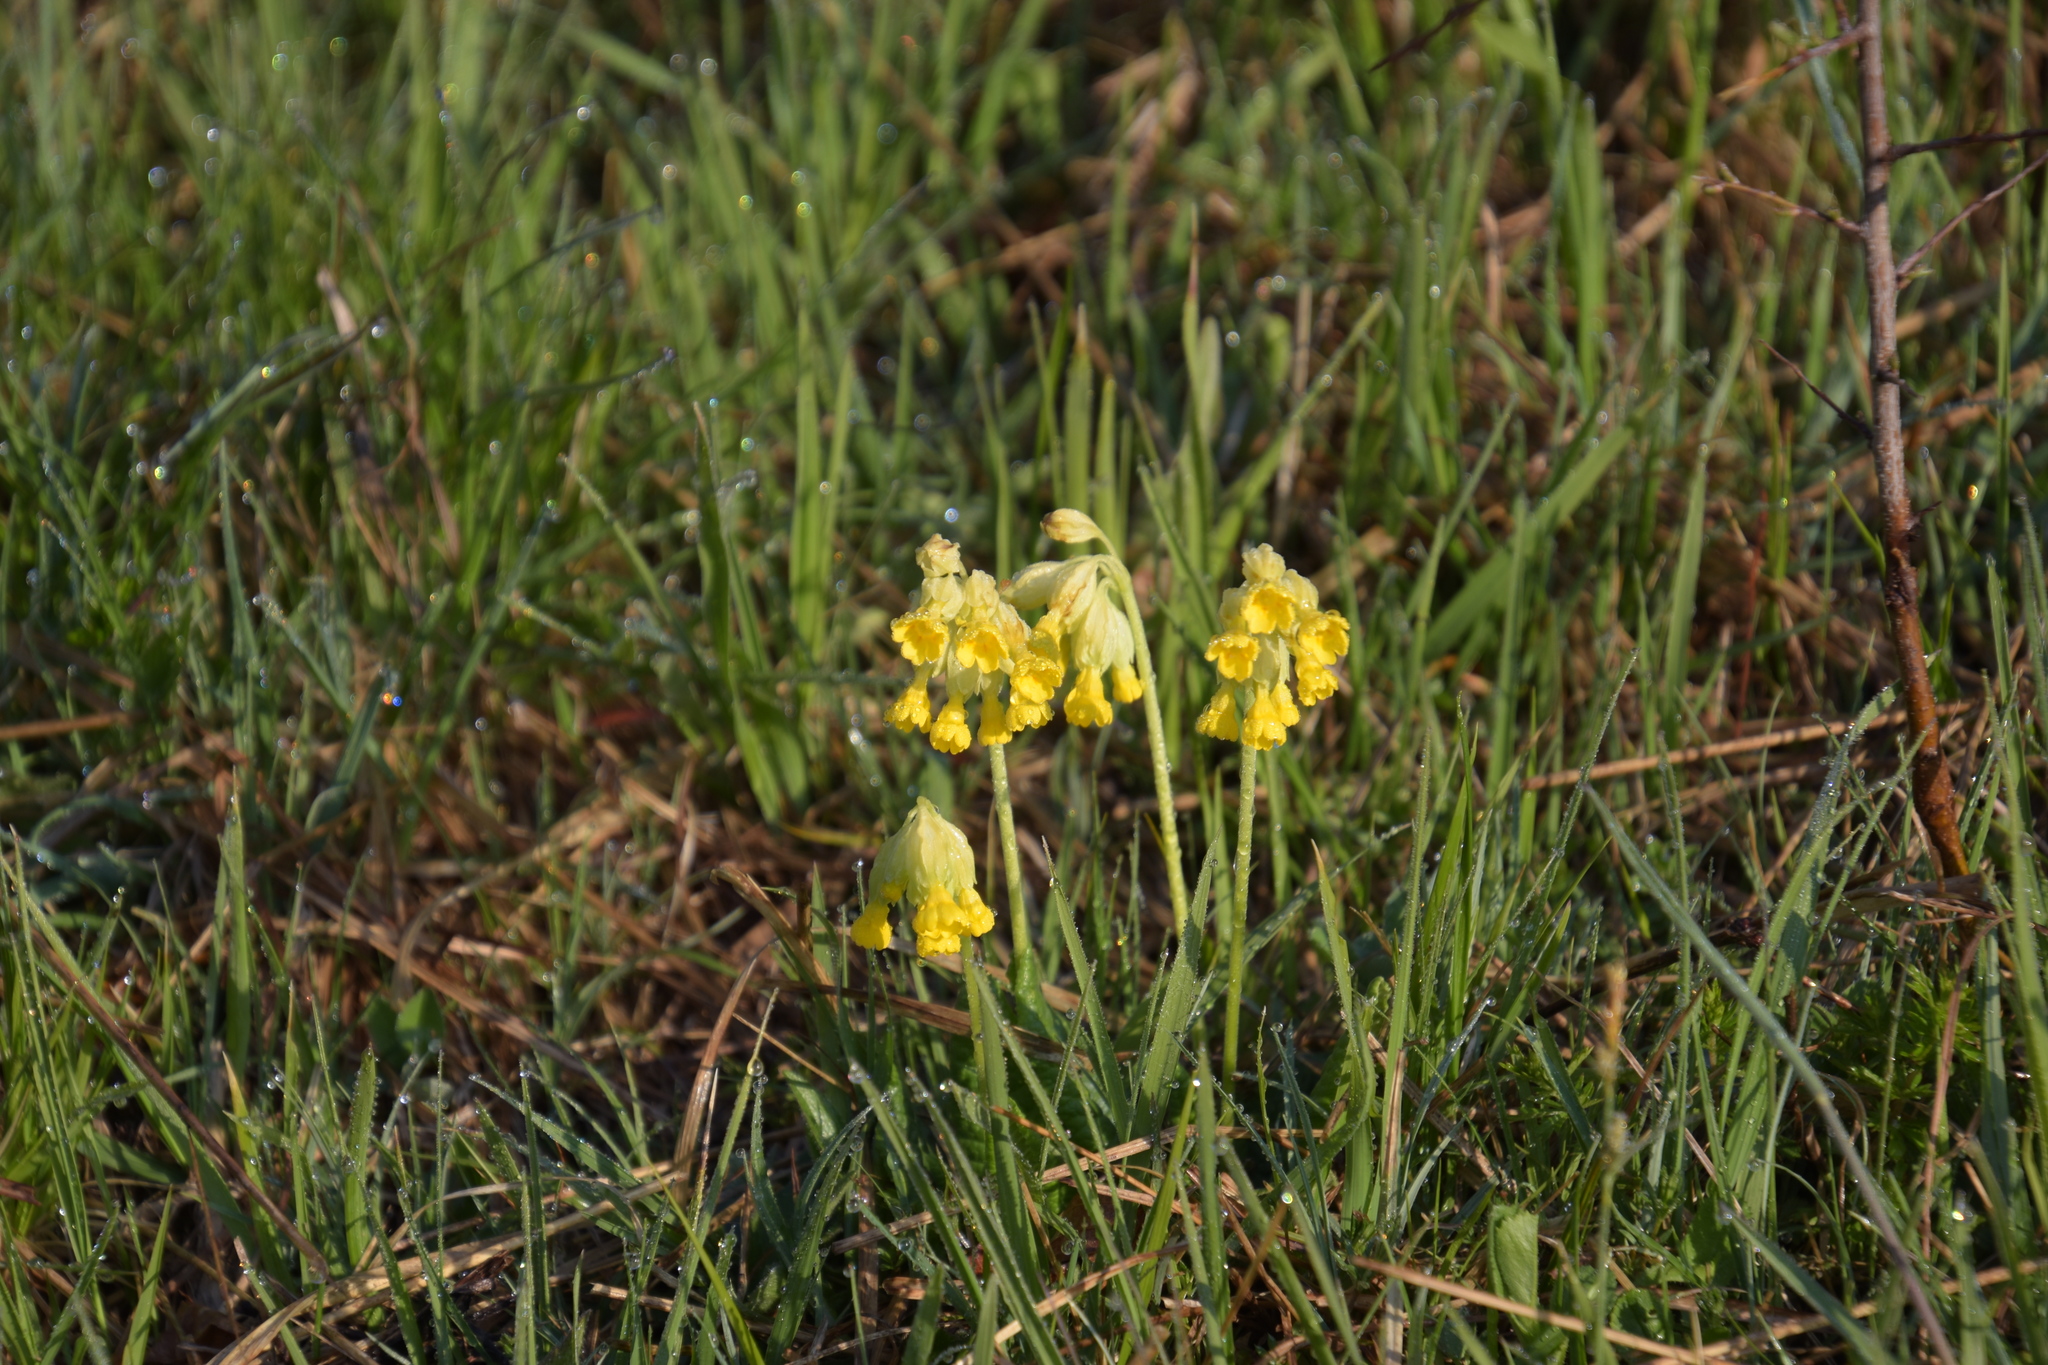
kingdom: Plantae
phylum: Tracheophyta
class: Magnoliopsida
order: Ericales
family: Primulaceae
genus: Primula
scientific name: Primula veris
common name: Cowslip
